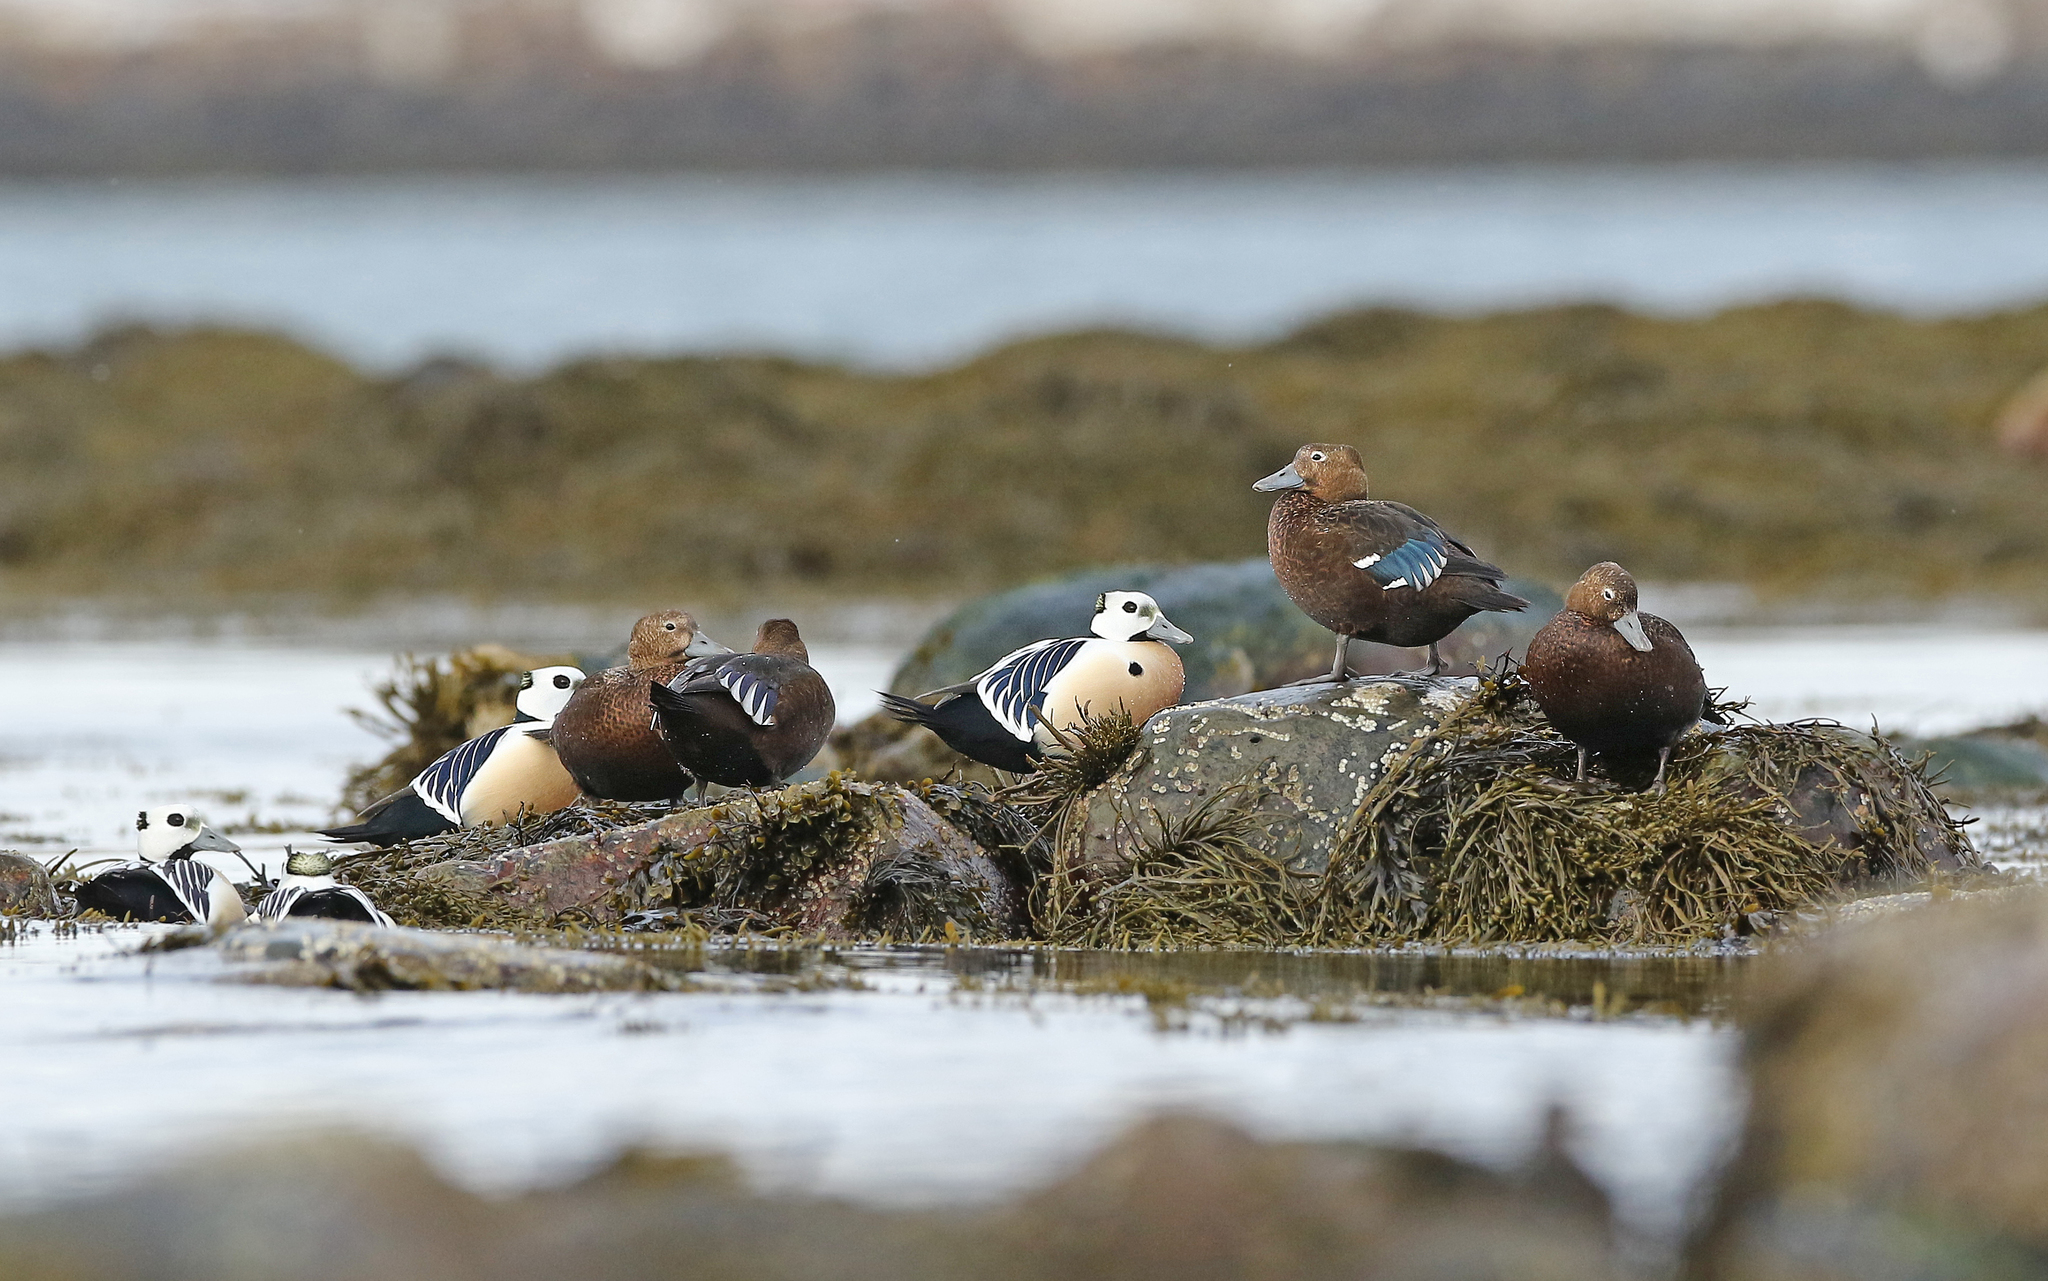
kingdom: Animalia
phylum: Chordata
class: Aves
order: Anseriformes
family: Anatidae
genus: Polysticta
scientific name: Polysticta stelleri
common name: Steller's eider
